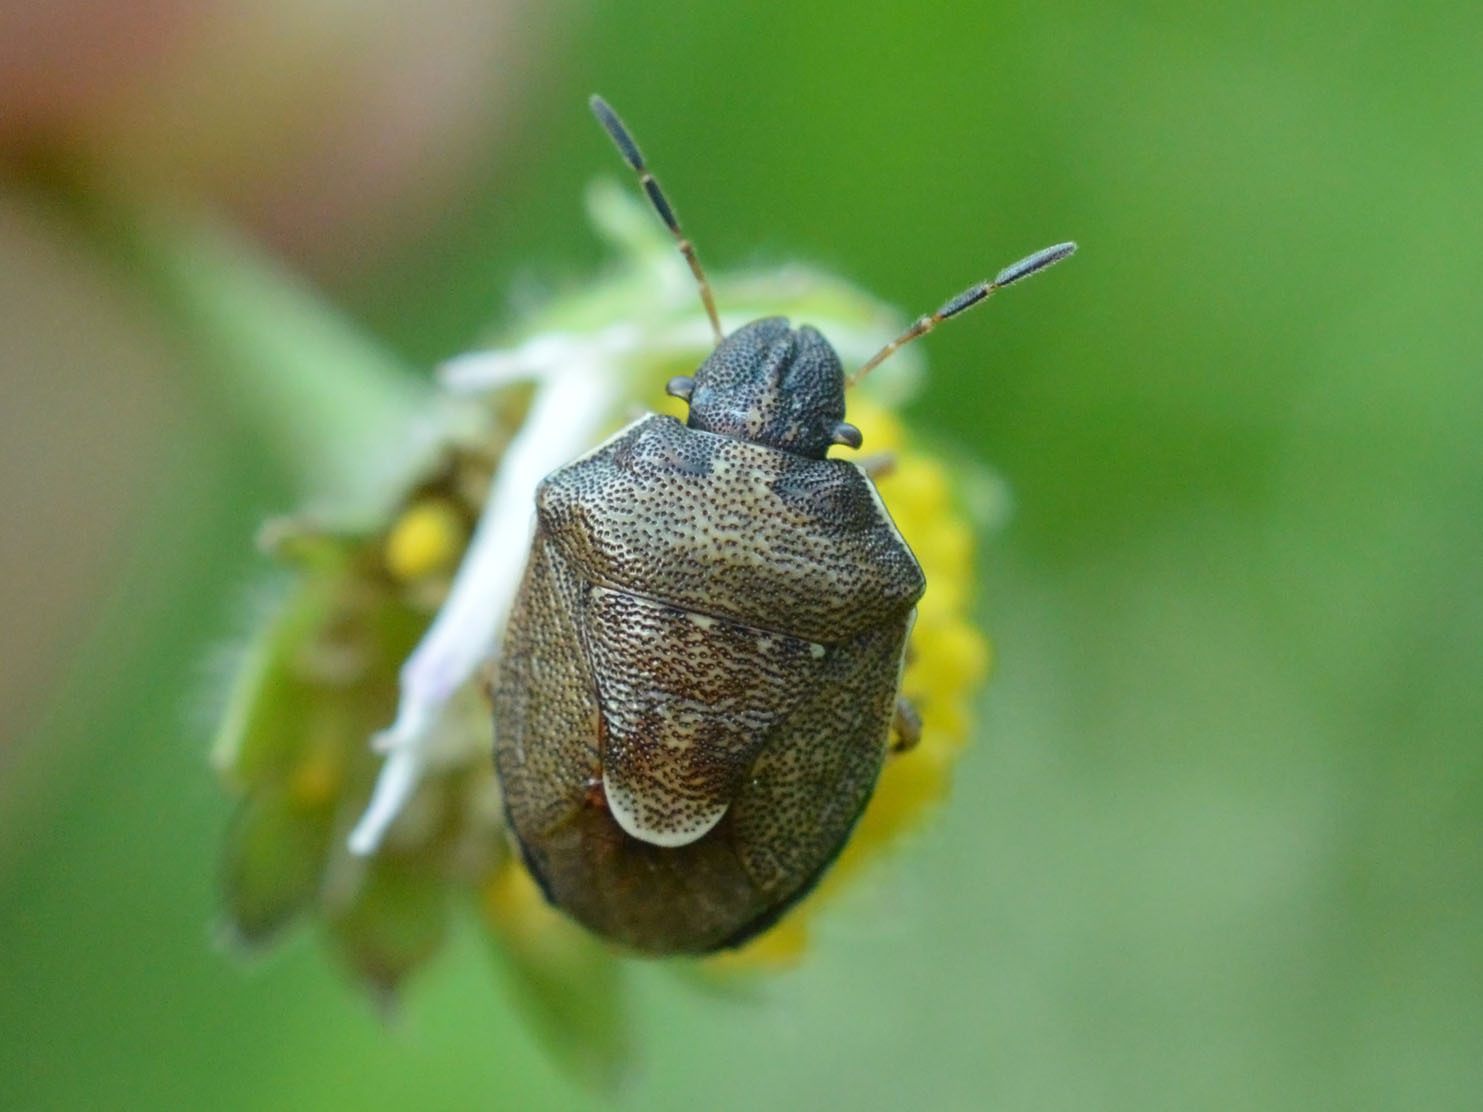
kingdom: Animalia
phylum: Arthropoda
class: Insecta
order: Hemiptera
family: Pentatomidae
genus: Rubiconia
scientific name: Rubiconia intermedia
